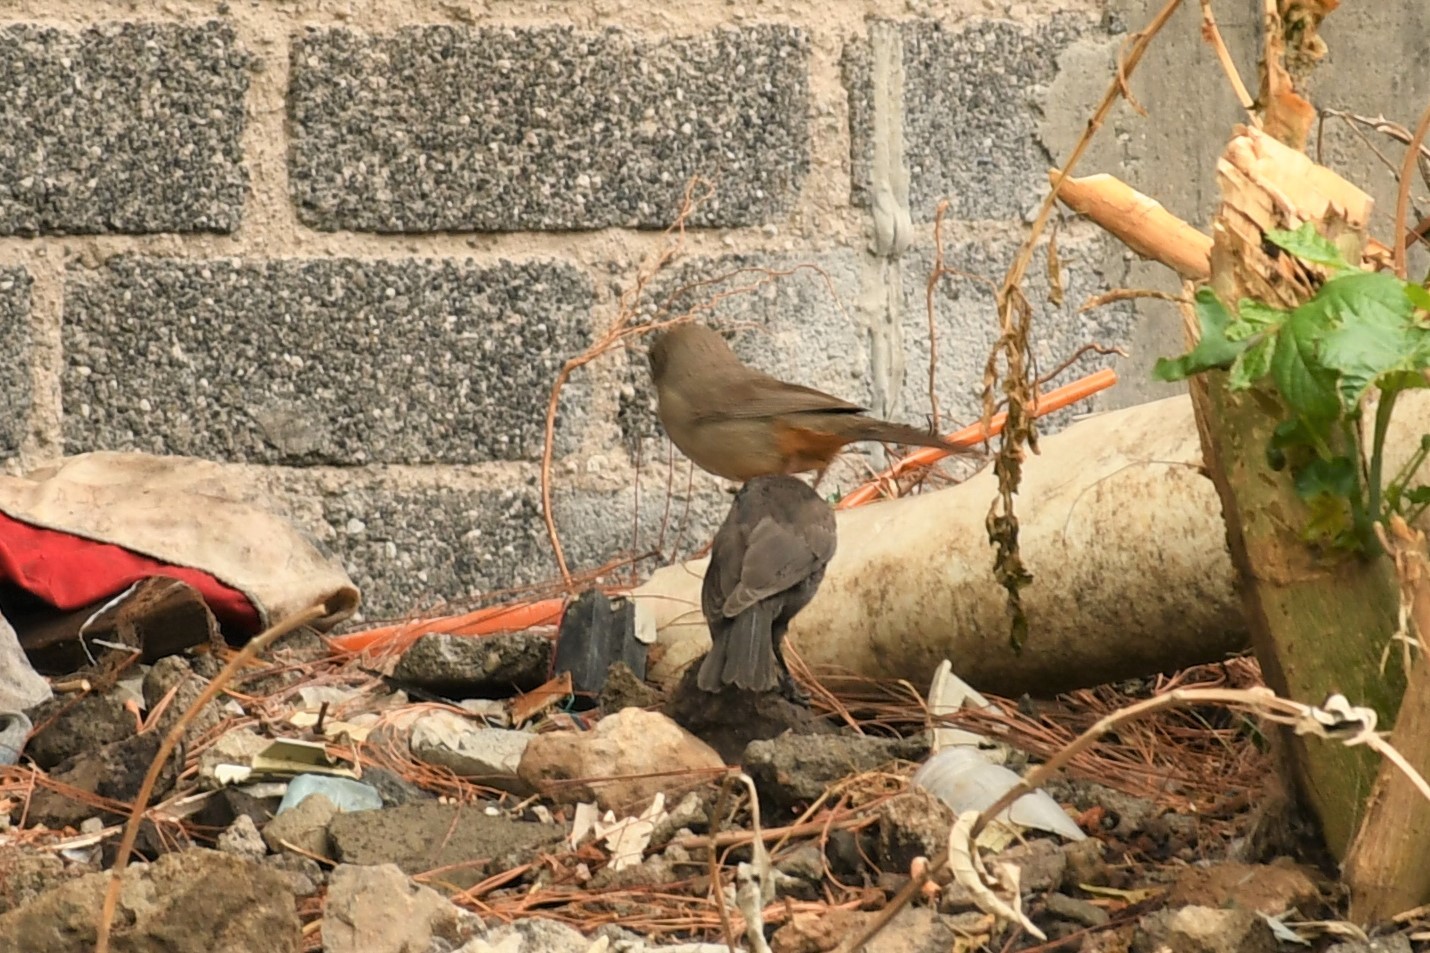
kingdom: Animalia
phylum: Chordata
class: Aves
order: Passeriformes
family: Passerellidae
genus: Melozone
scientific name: Melozone fusca
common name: Canyon towhee
